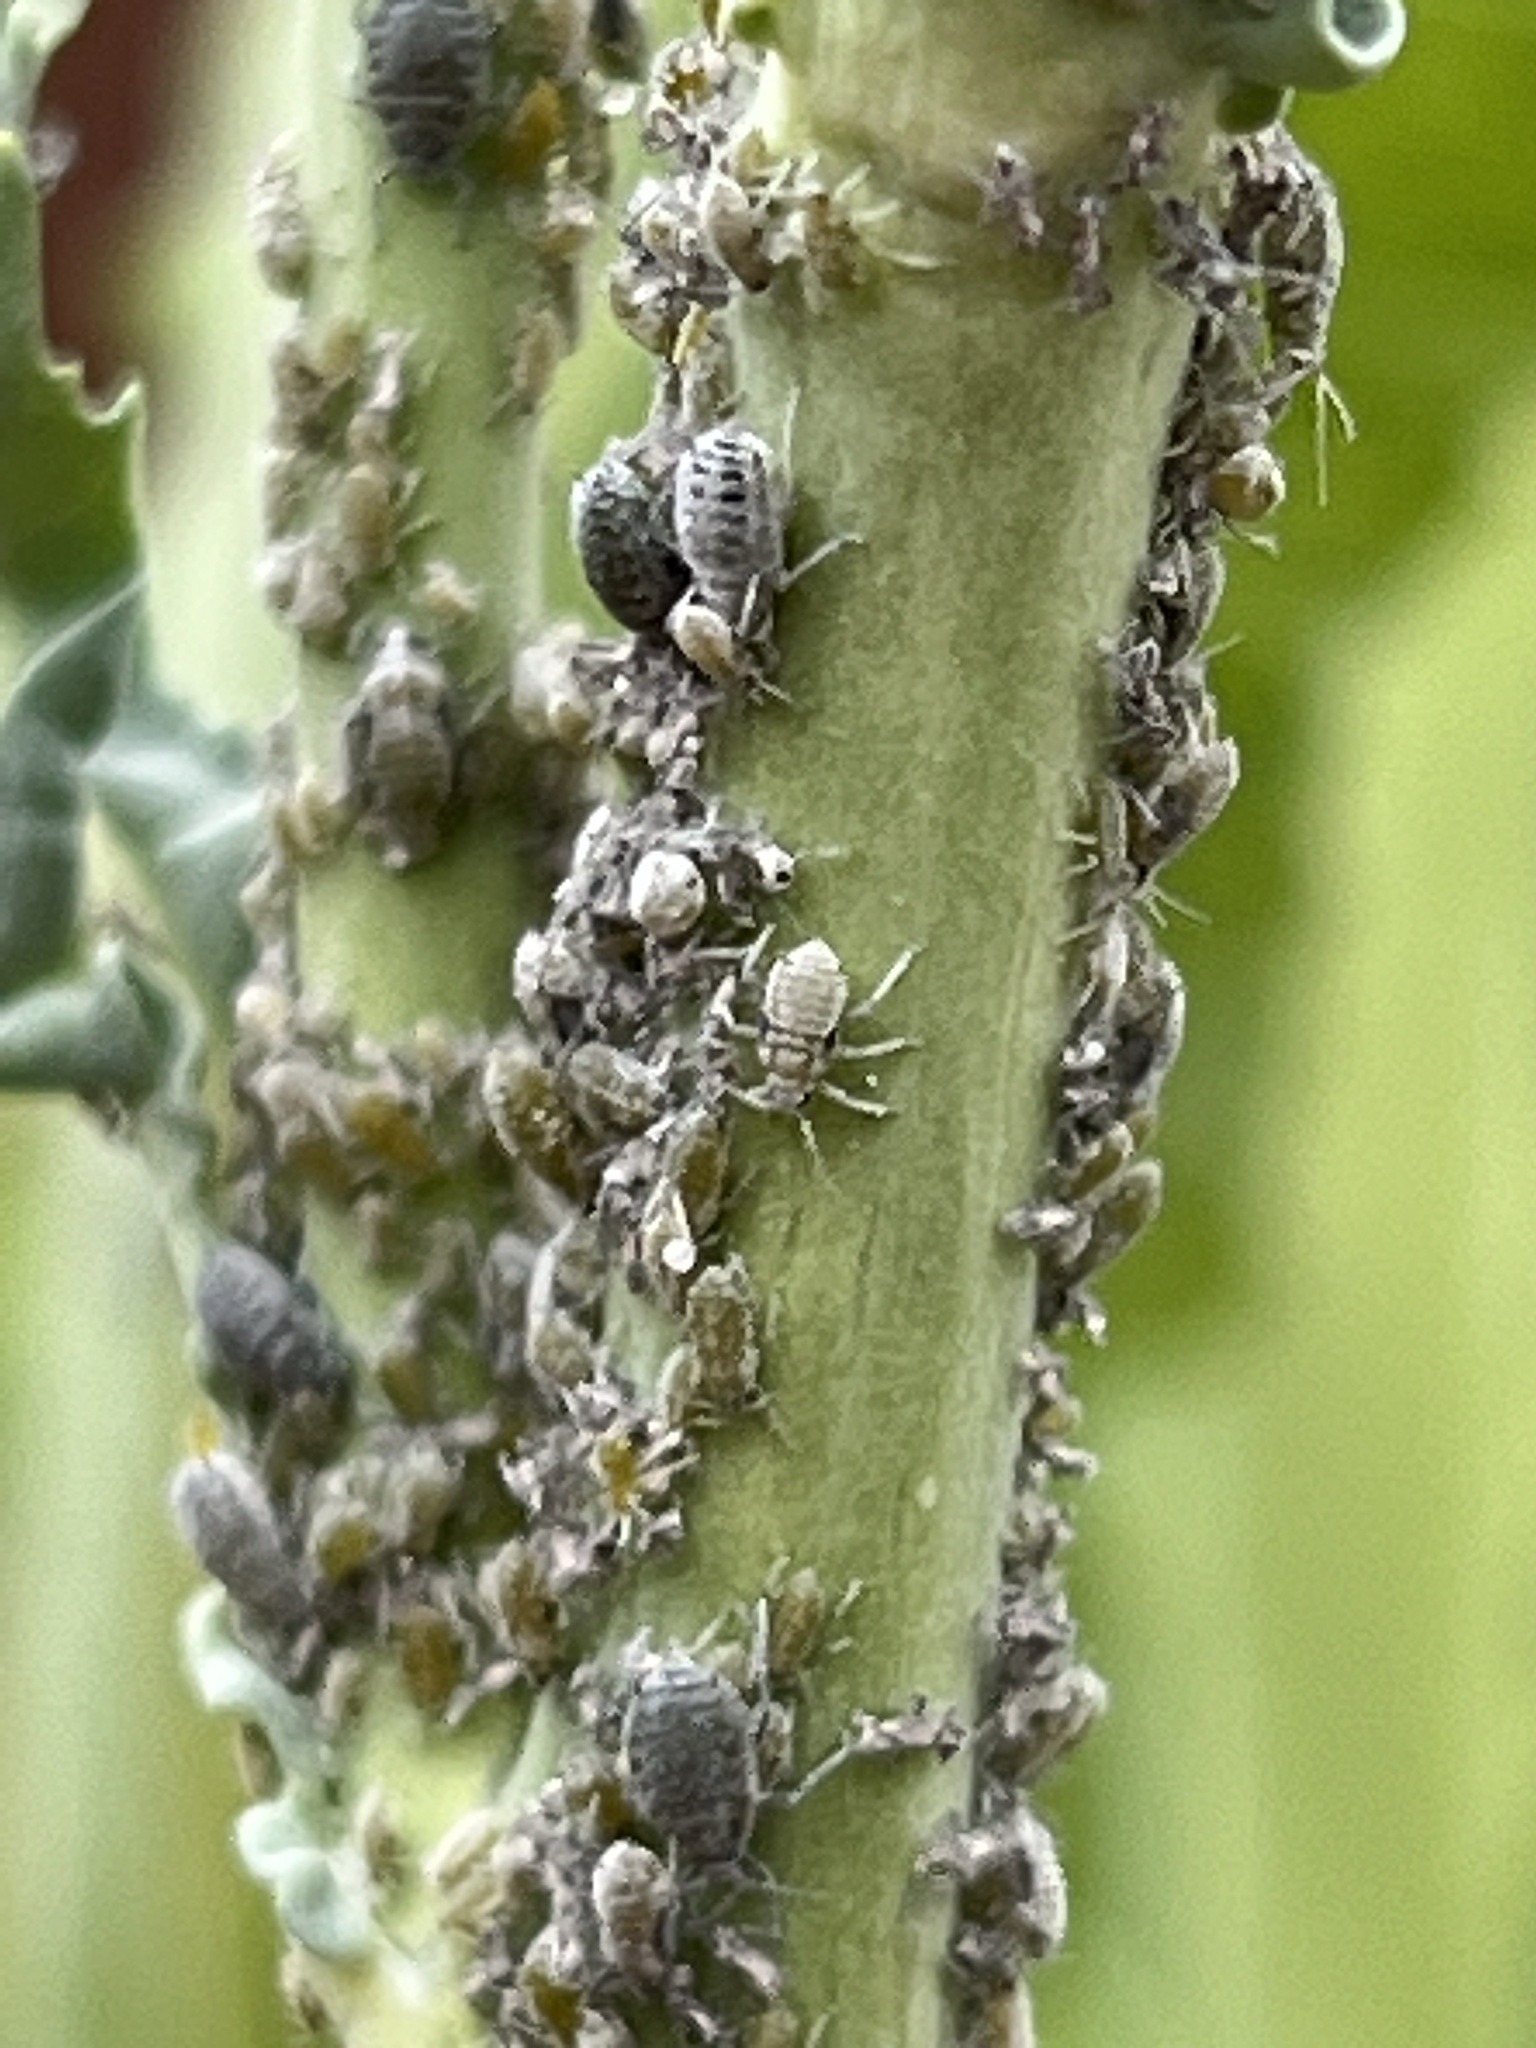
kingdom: Animalia
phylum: Arthropoda
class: Insecta
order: Hemiptera
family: Aphididae
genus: Brevicoryne
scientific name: Brevicoryne brassicae
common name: Cabbage aphid
